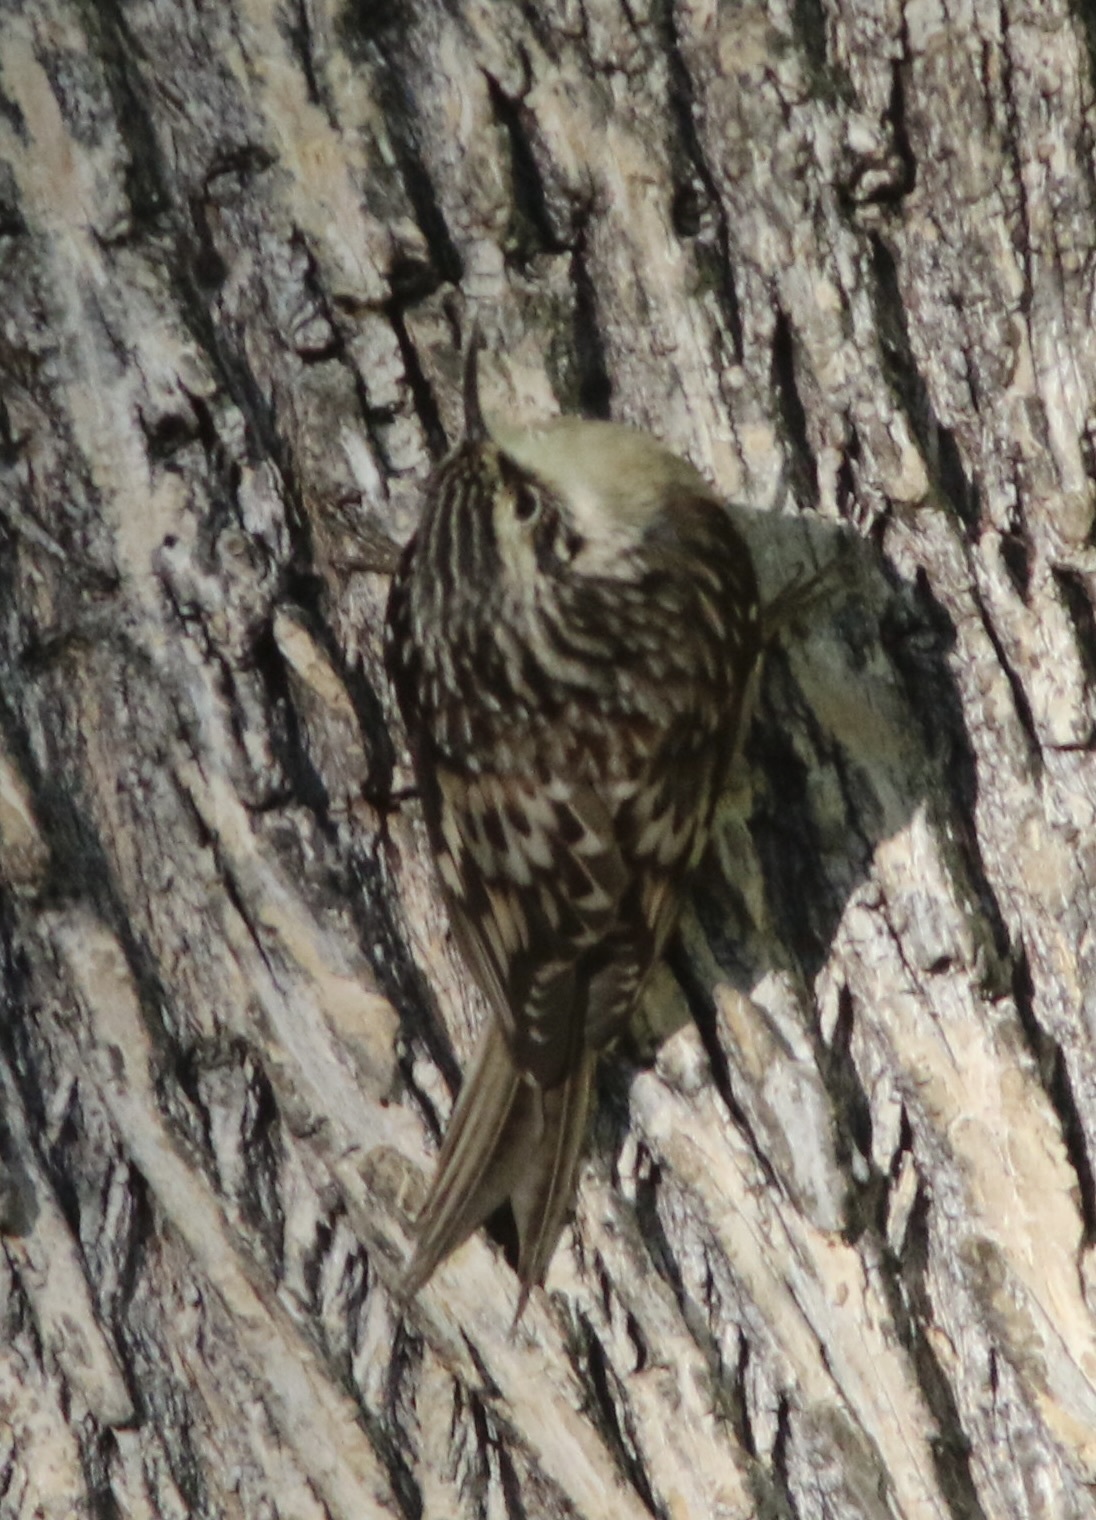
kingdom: Animalia
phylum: Chordata
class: Aves
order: Passeriformes
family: Certhiidae
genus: Certhia
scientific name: Certhia americana
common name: Brown creeper
